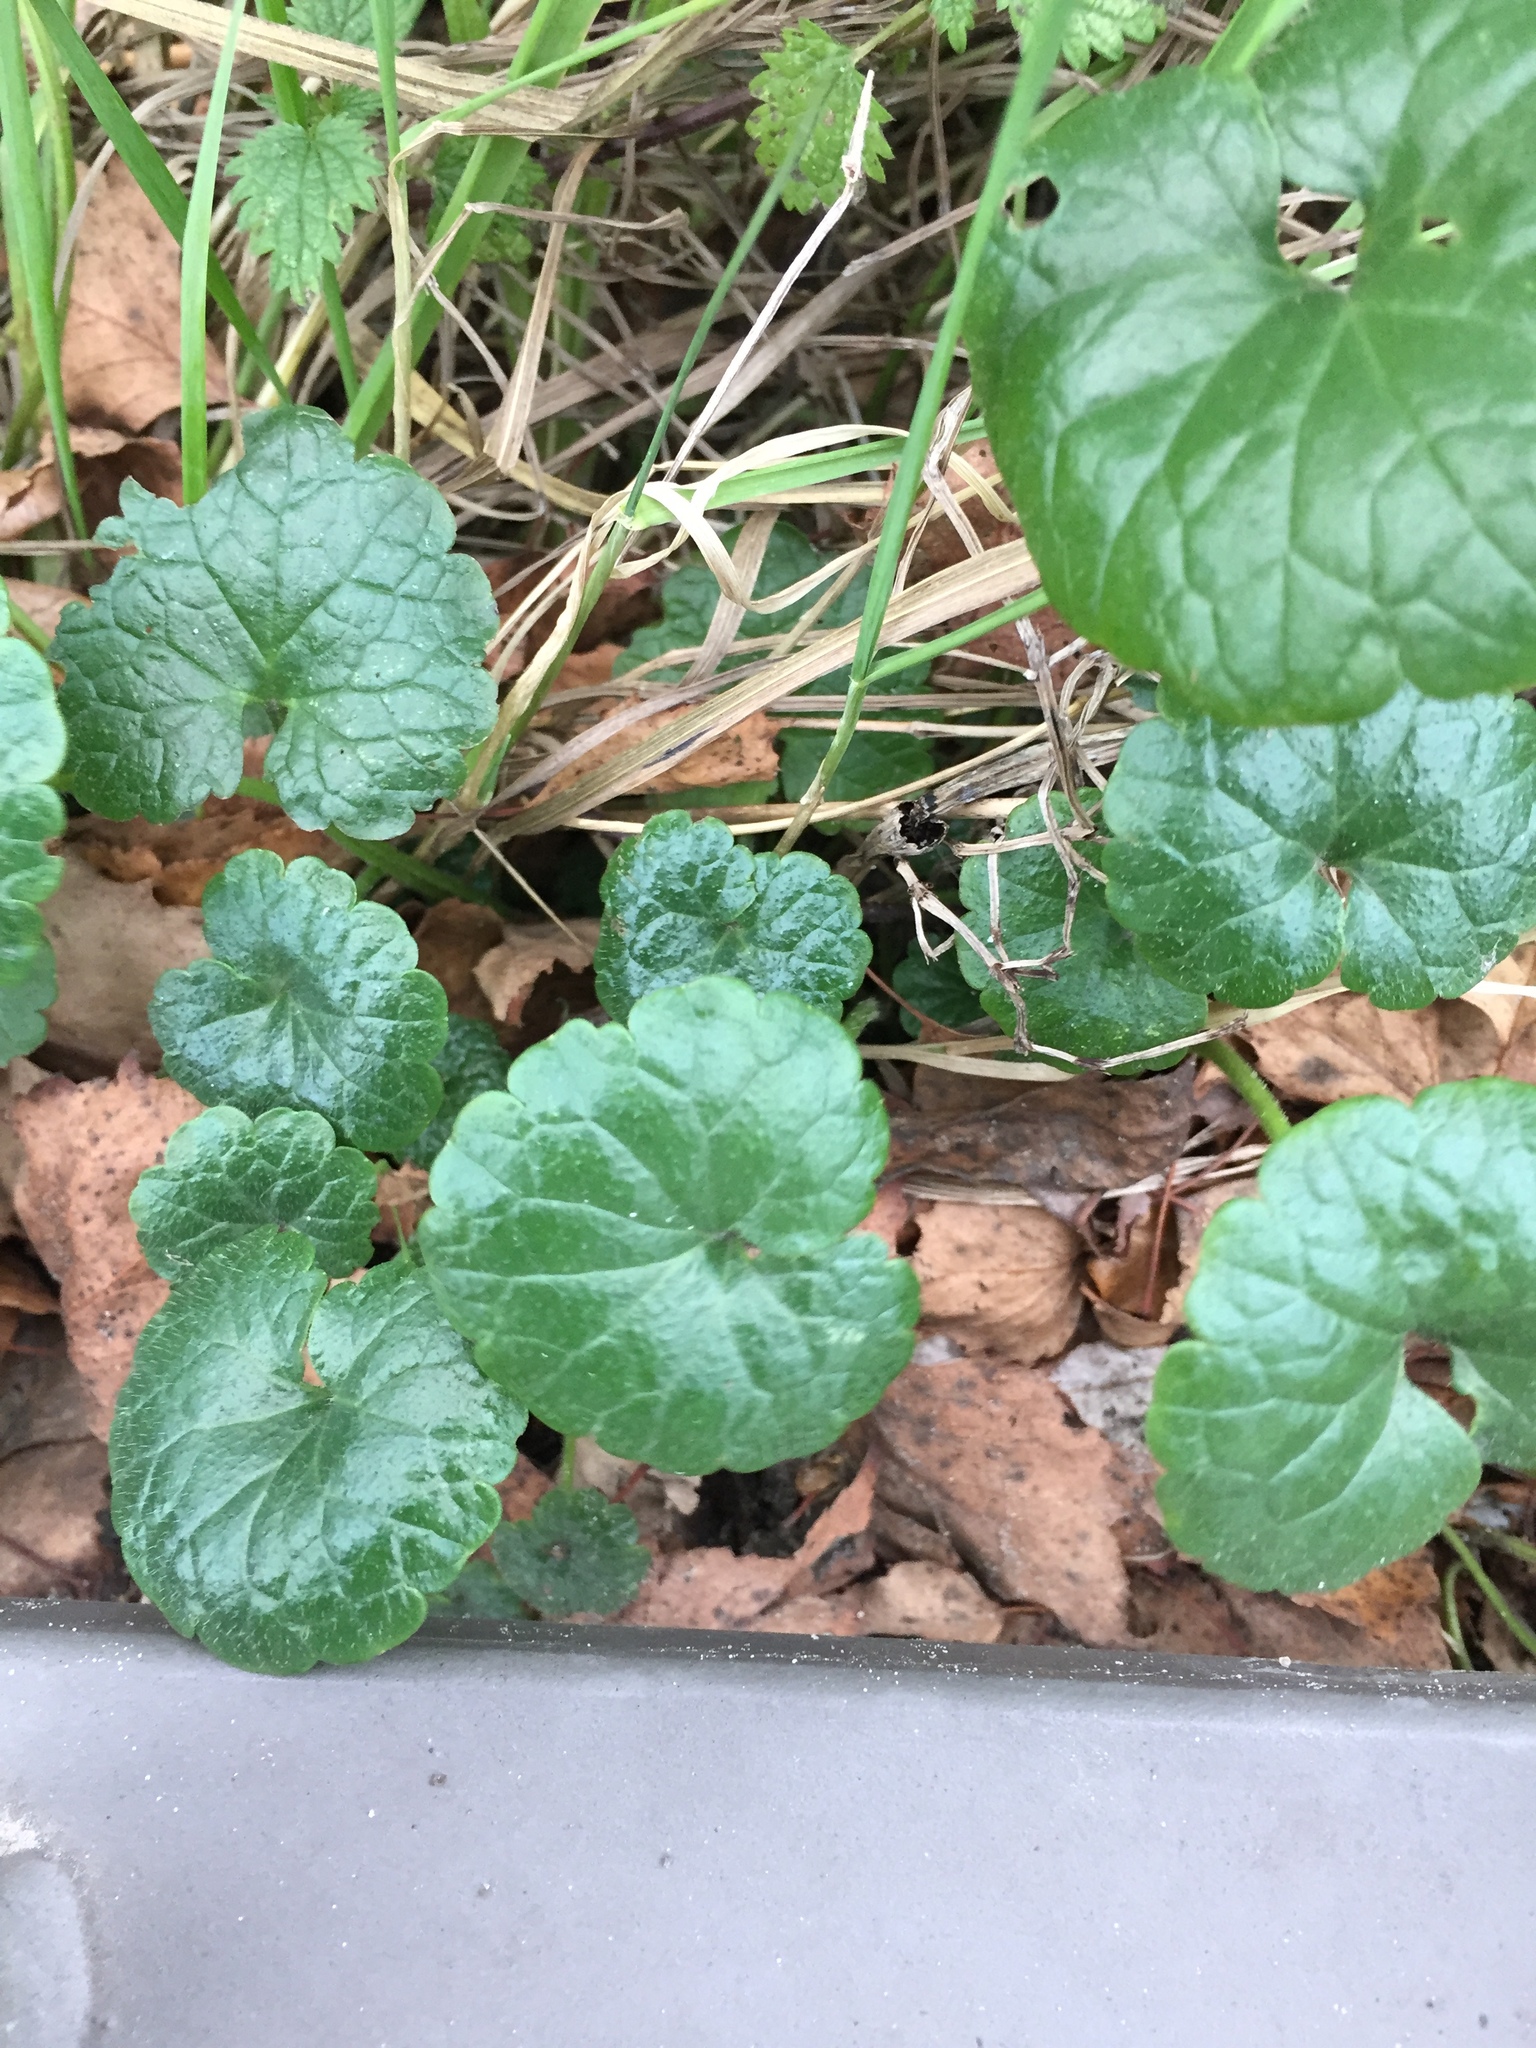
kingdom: Plantae
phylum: Tracheophyta
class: Magnoliopsida
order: Lamiales
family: Lamiaceae
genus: Glechoma
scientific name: Glechoma hederacea
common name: Ground ivy
